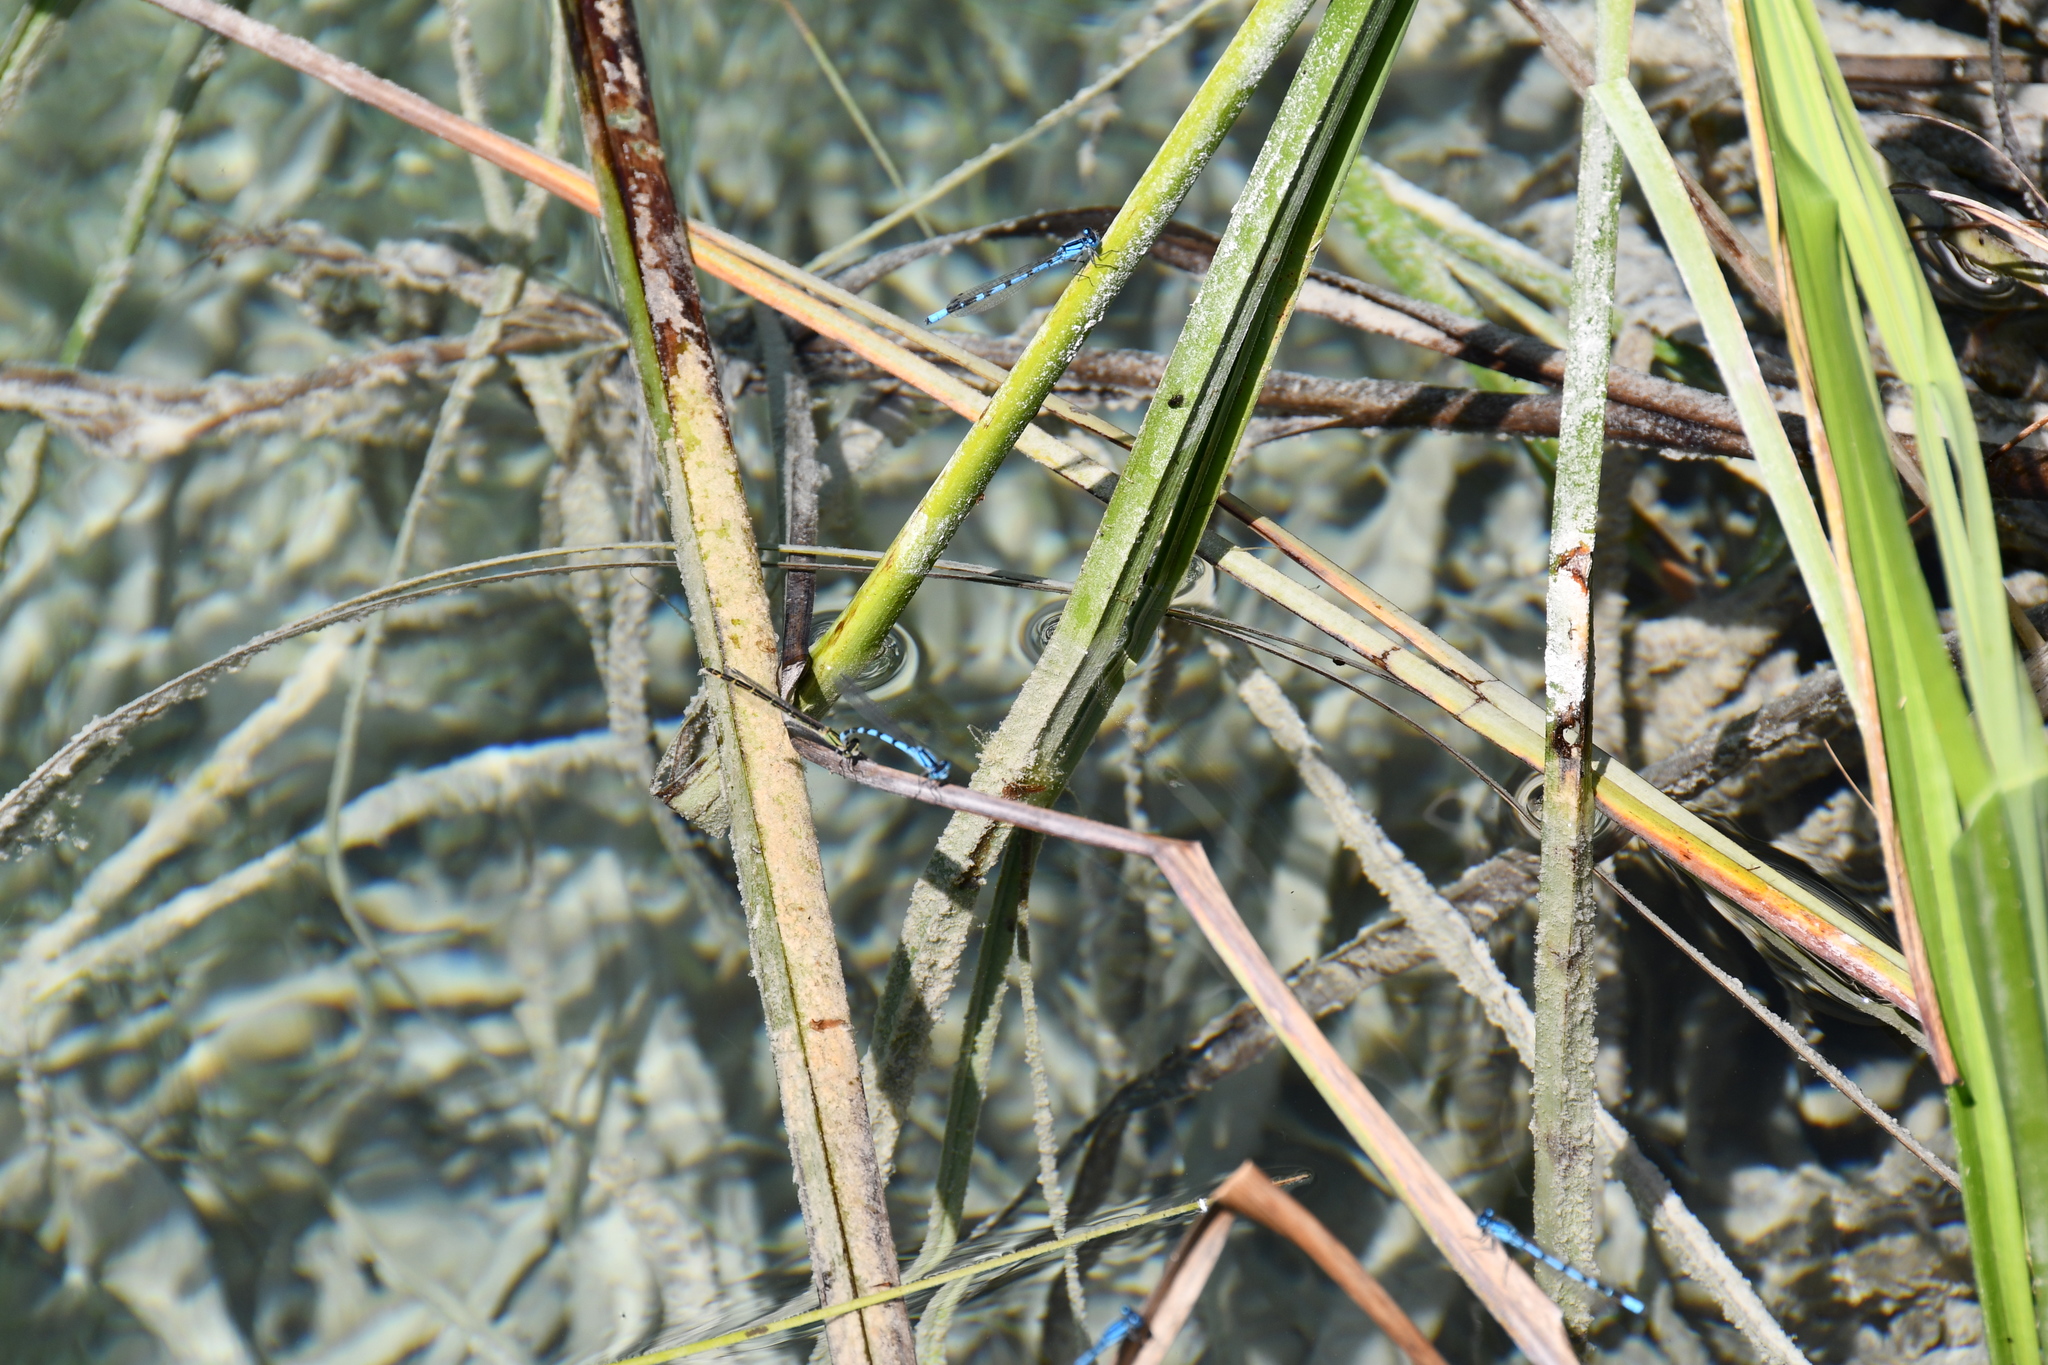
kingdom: Animalia
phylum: Arthropoda
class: Insecta
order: Odonata
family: Coenagrionidae
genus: Enallagma
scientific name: Enallagma cyathigerum
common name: Common blue damselfly
